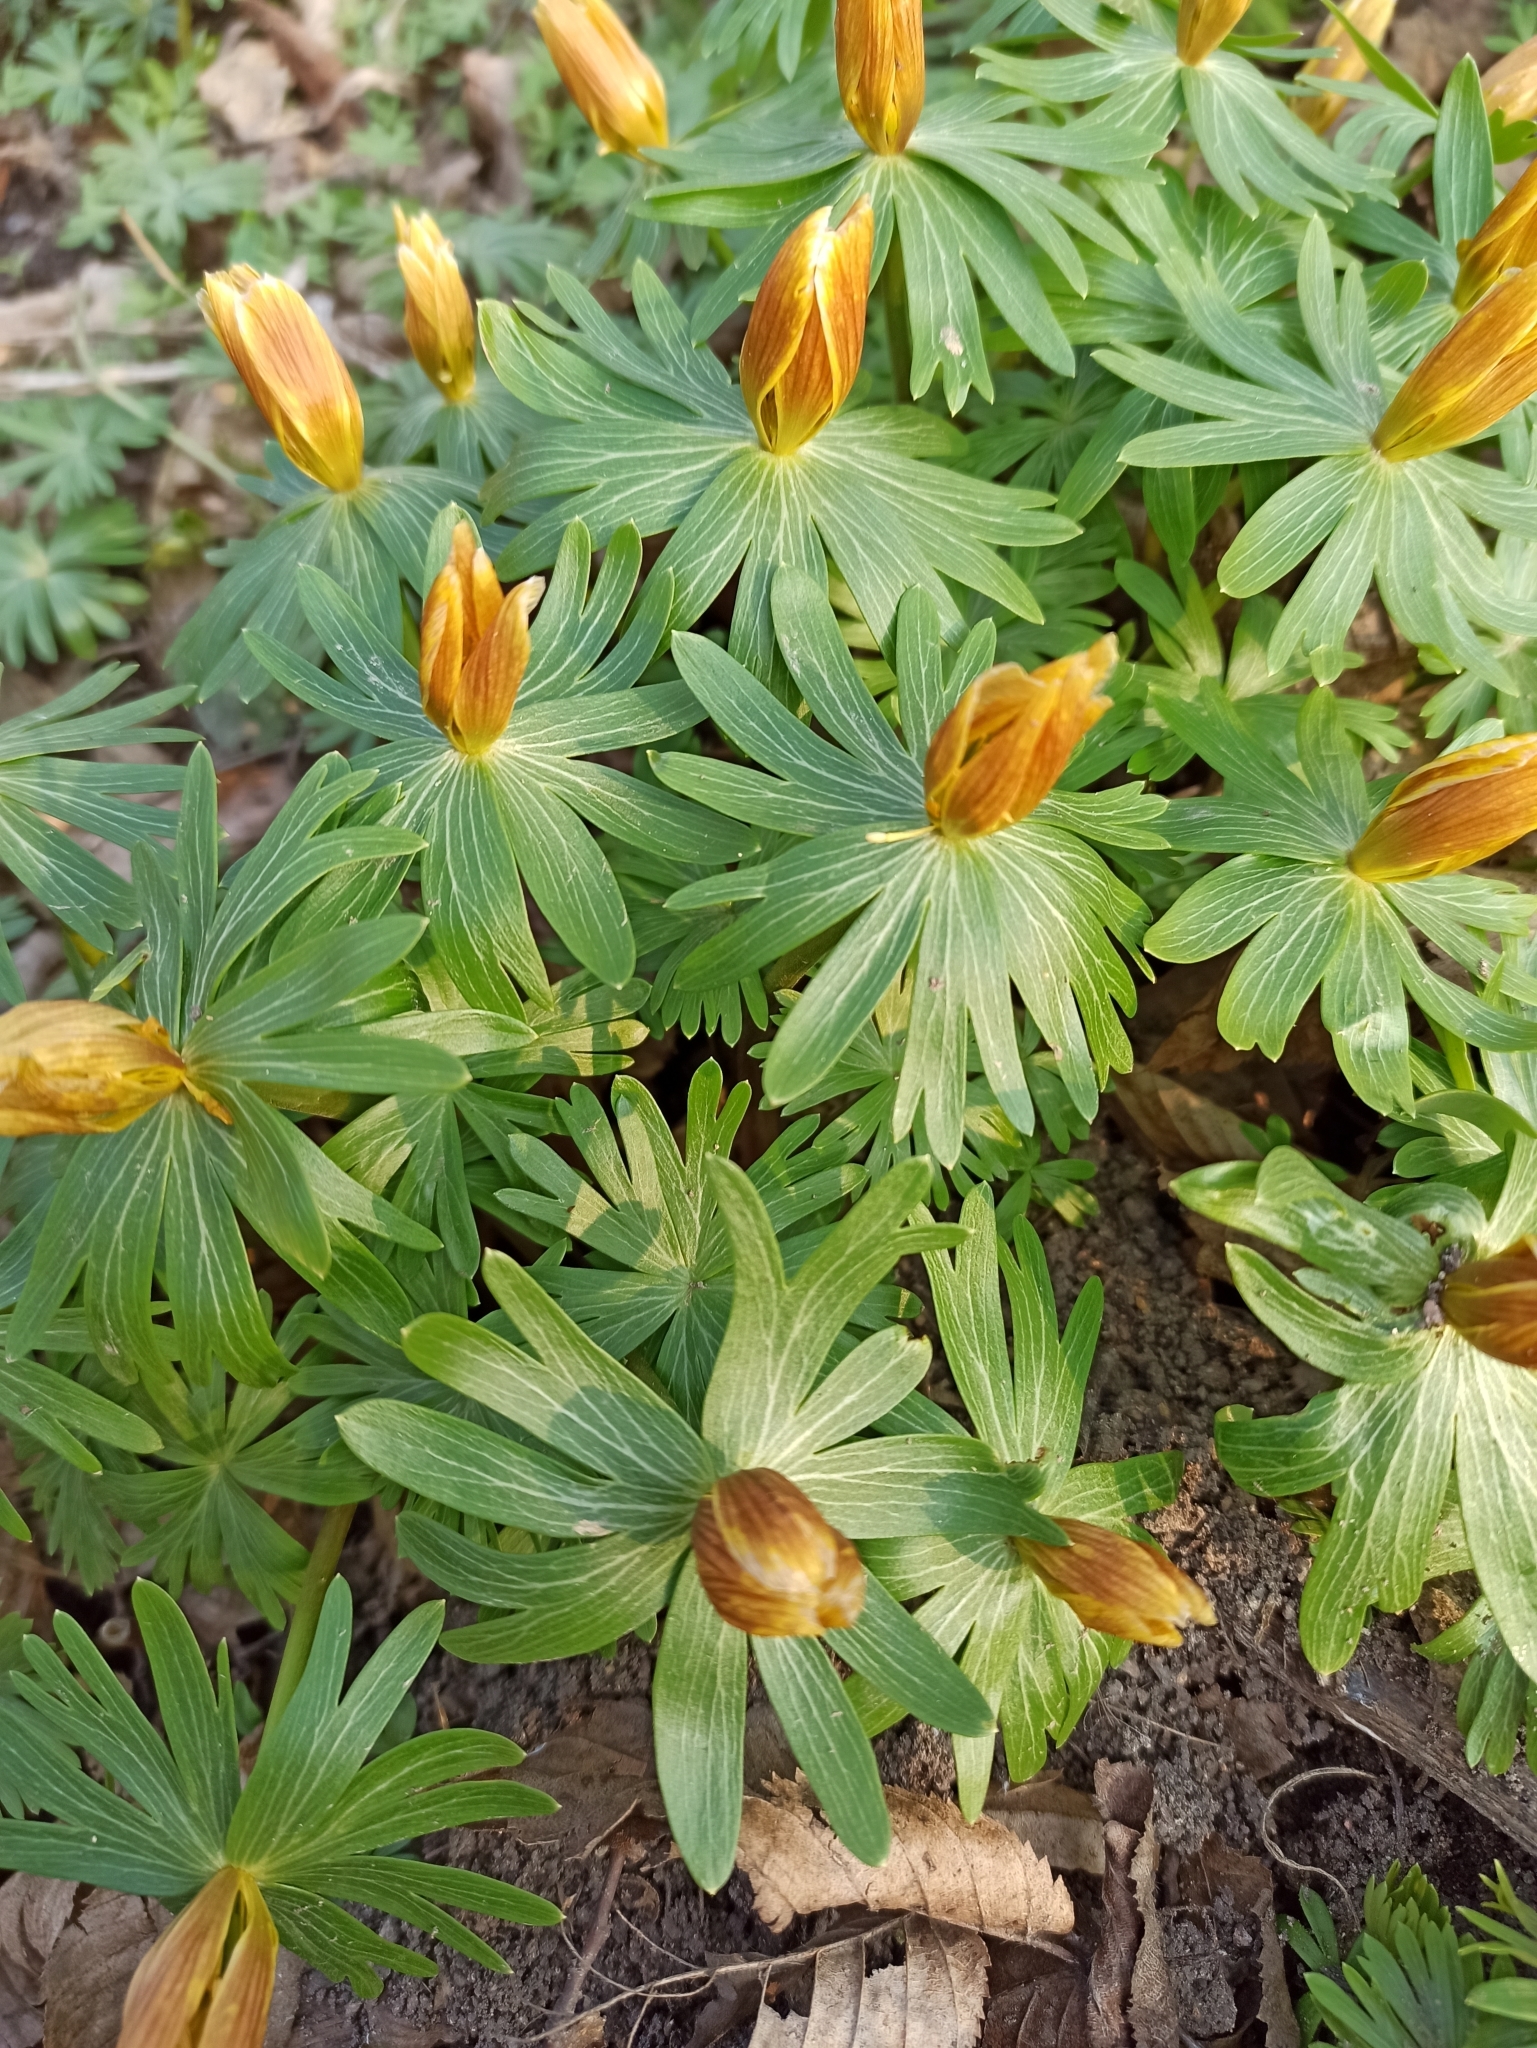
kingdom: Plantae
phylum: Tracheophyta
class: Magnoliopsida
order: Ranunculales
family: Ranunculaceae
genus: Eranthis
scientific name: Eranthis hyemalis
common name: Winter aconite
